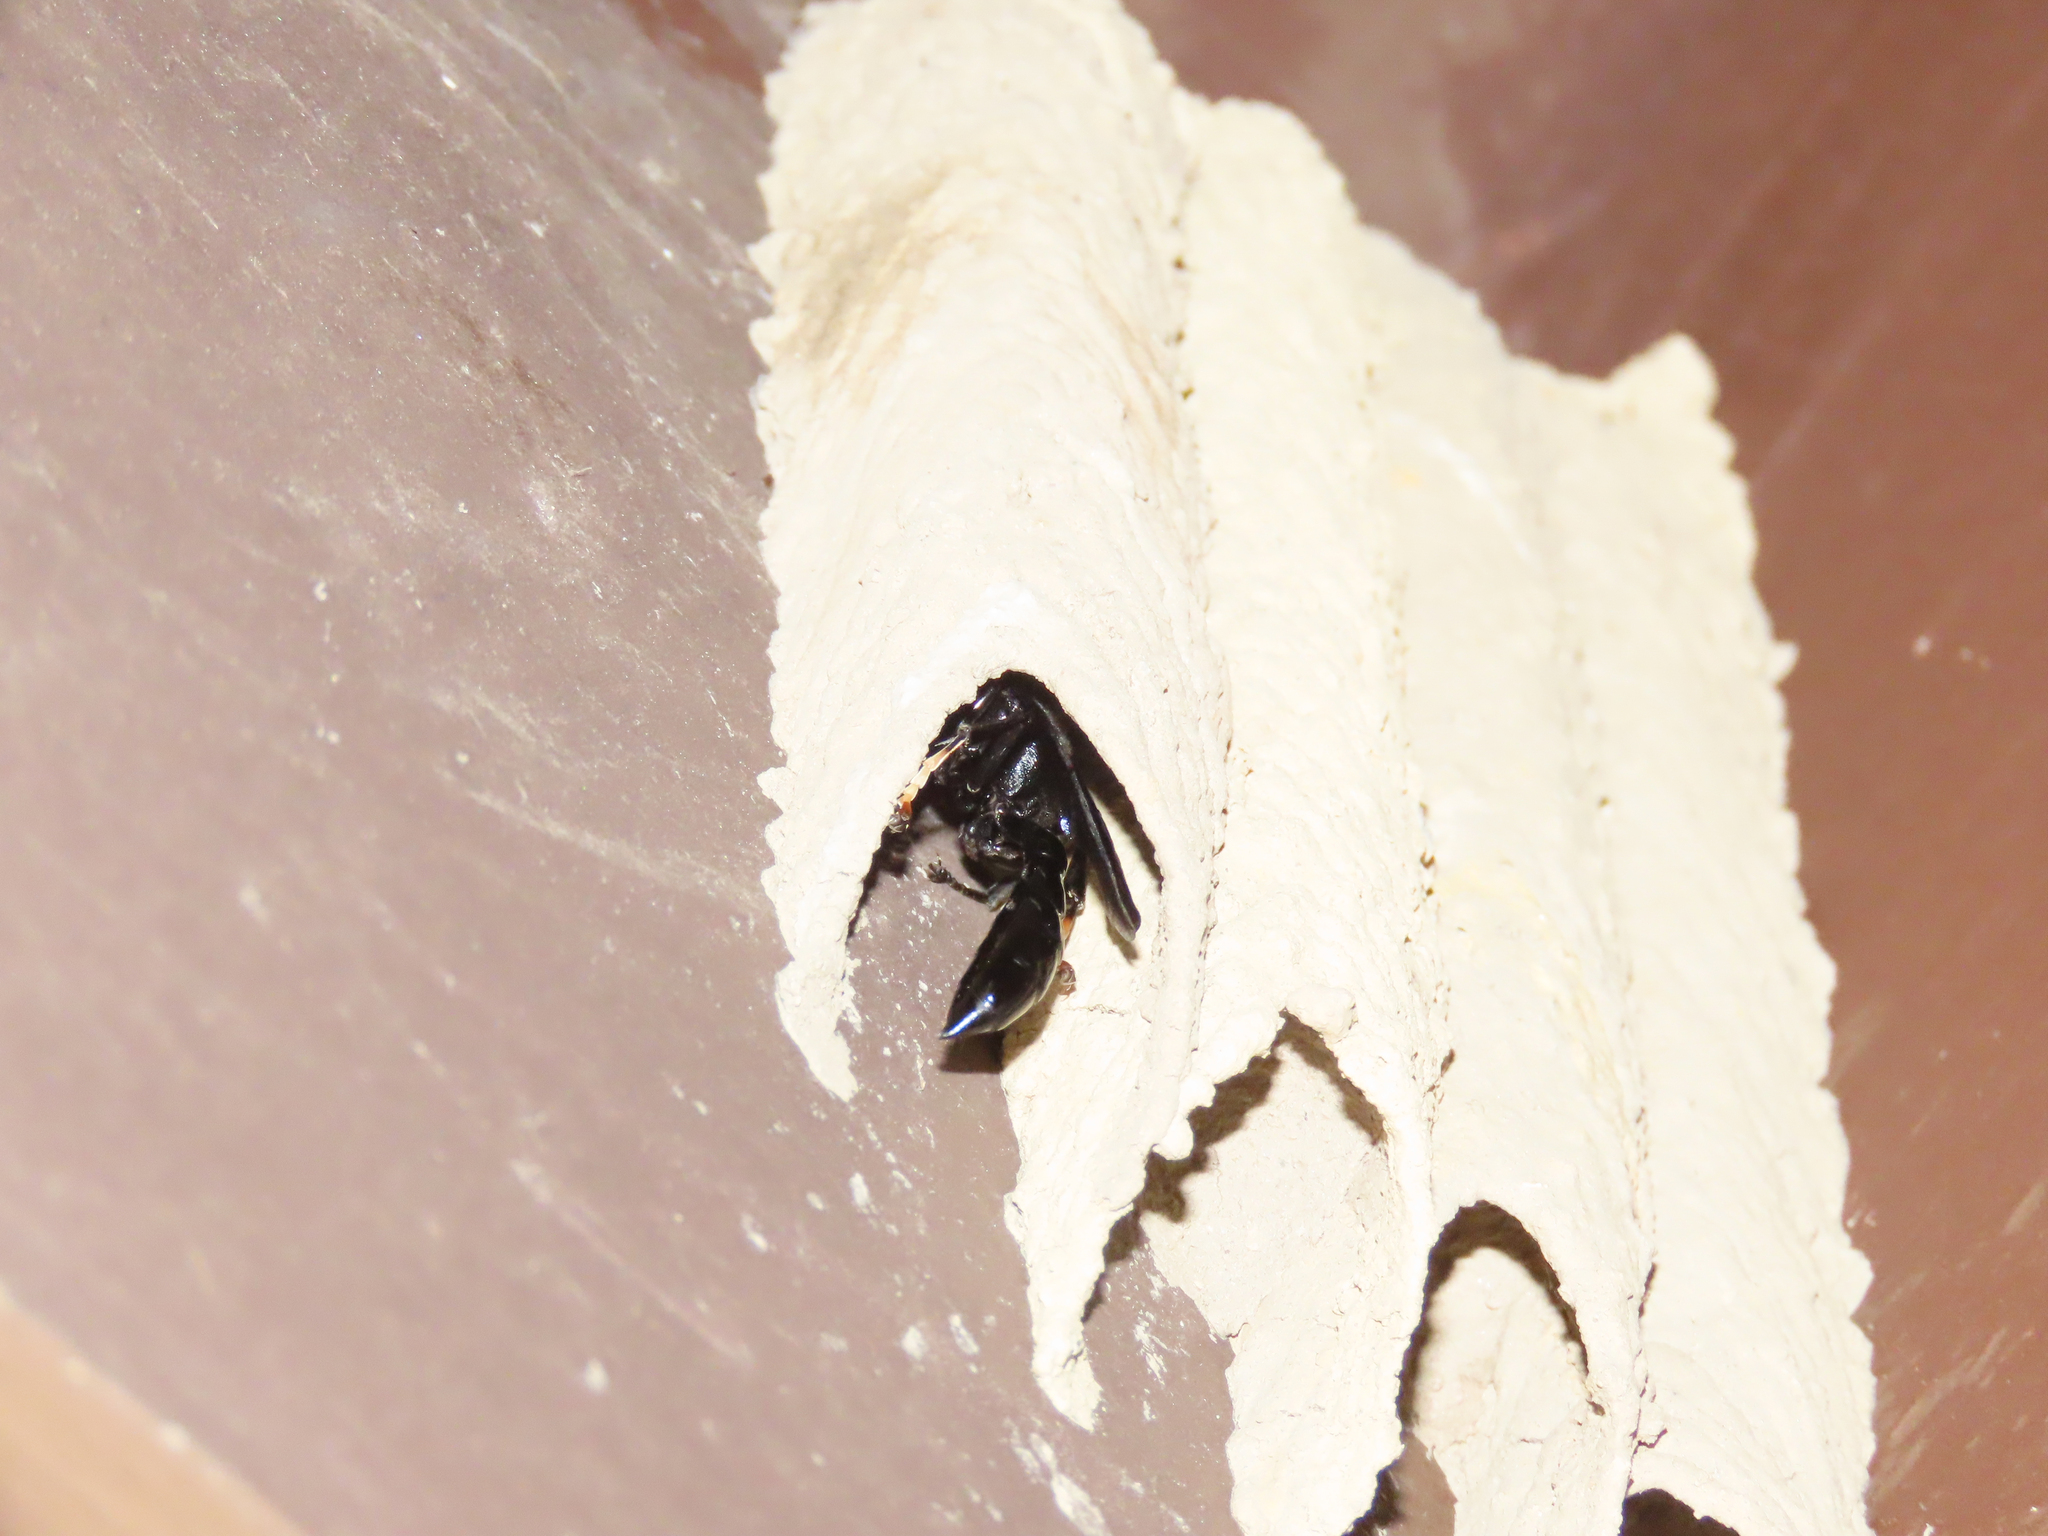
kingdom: Animalia
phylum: Arthropoda
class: Insecta
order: Hymenoptera
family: Crabronidae
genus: Trypoxylon
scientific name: Trypoxylon politum
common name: Organ-pipe mud-dauber wasp
